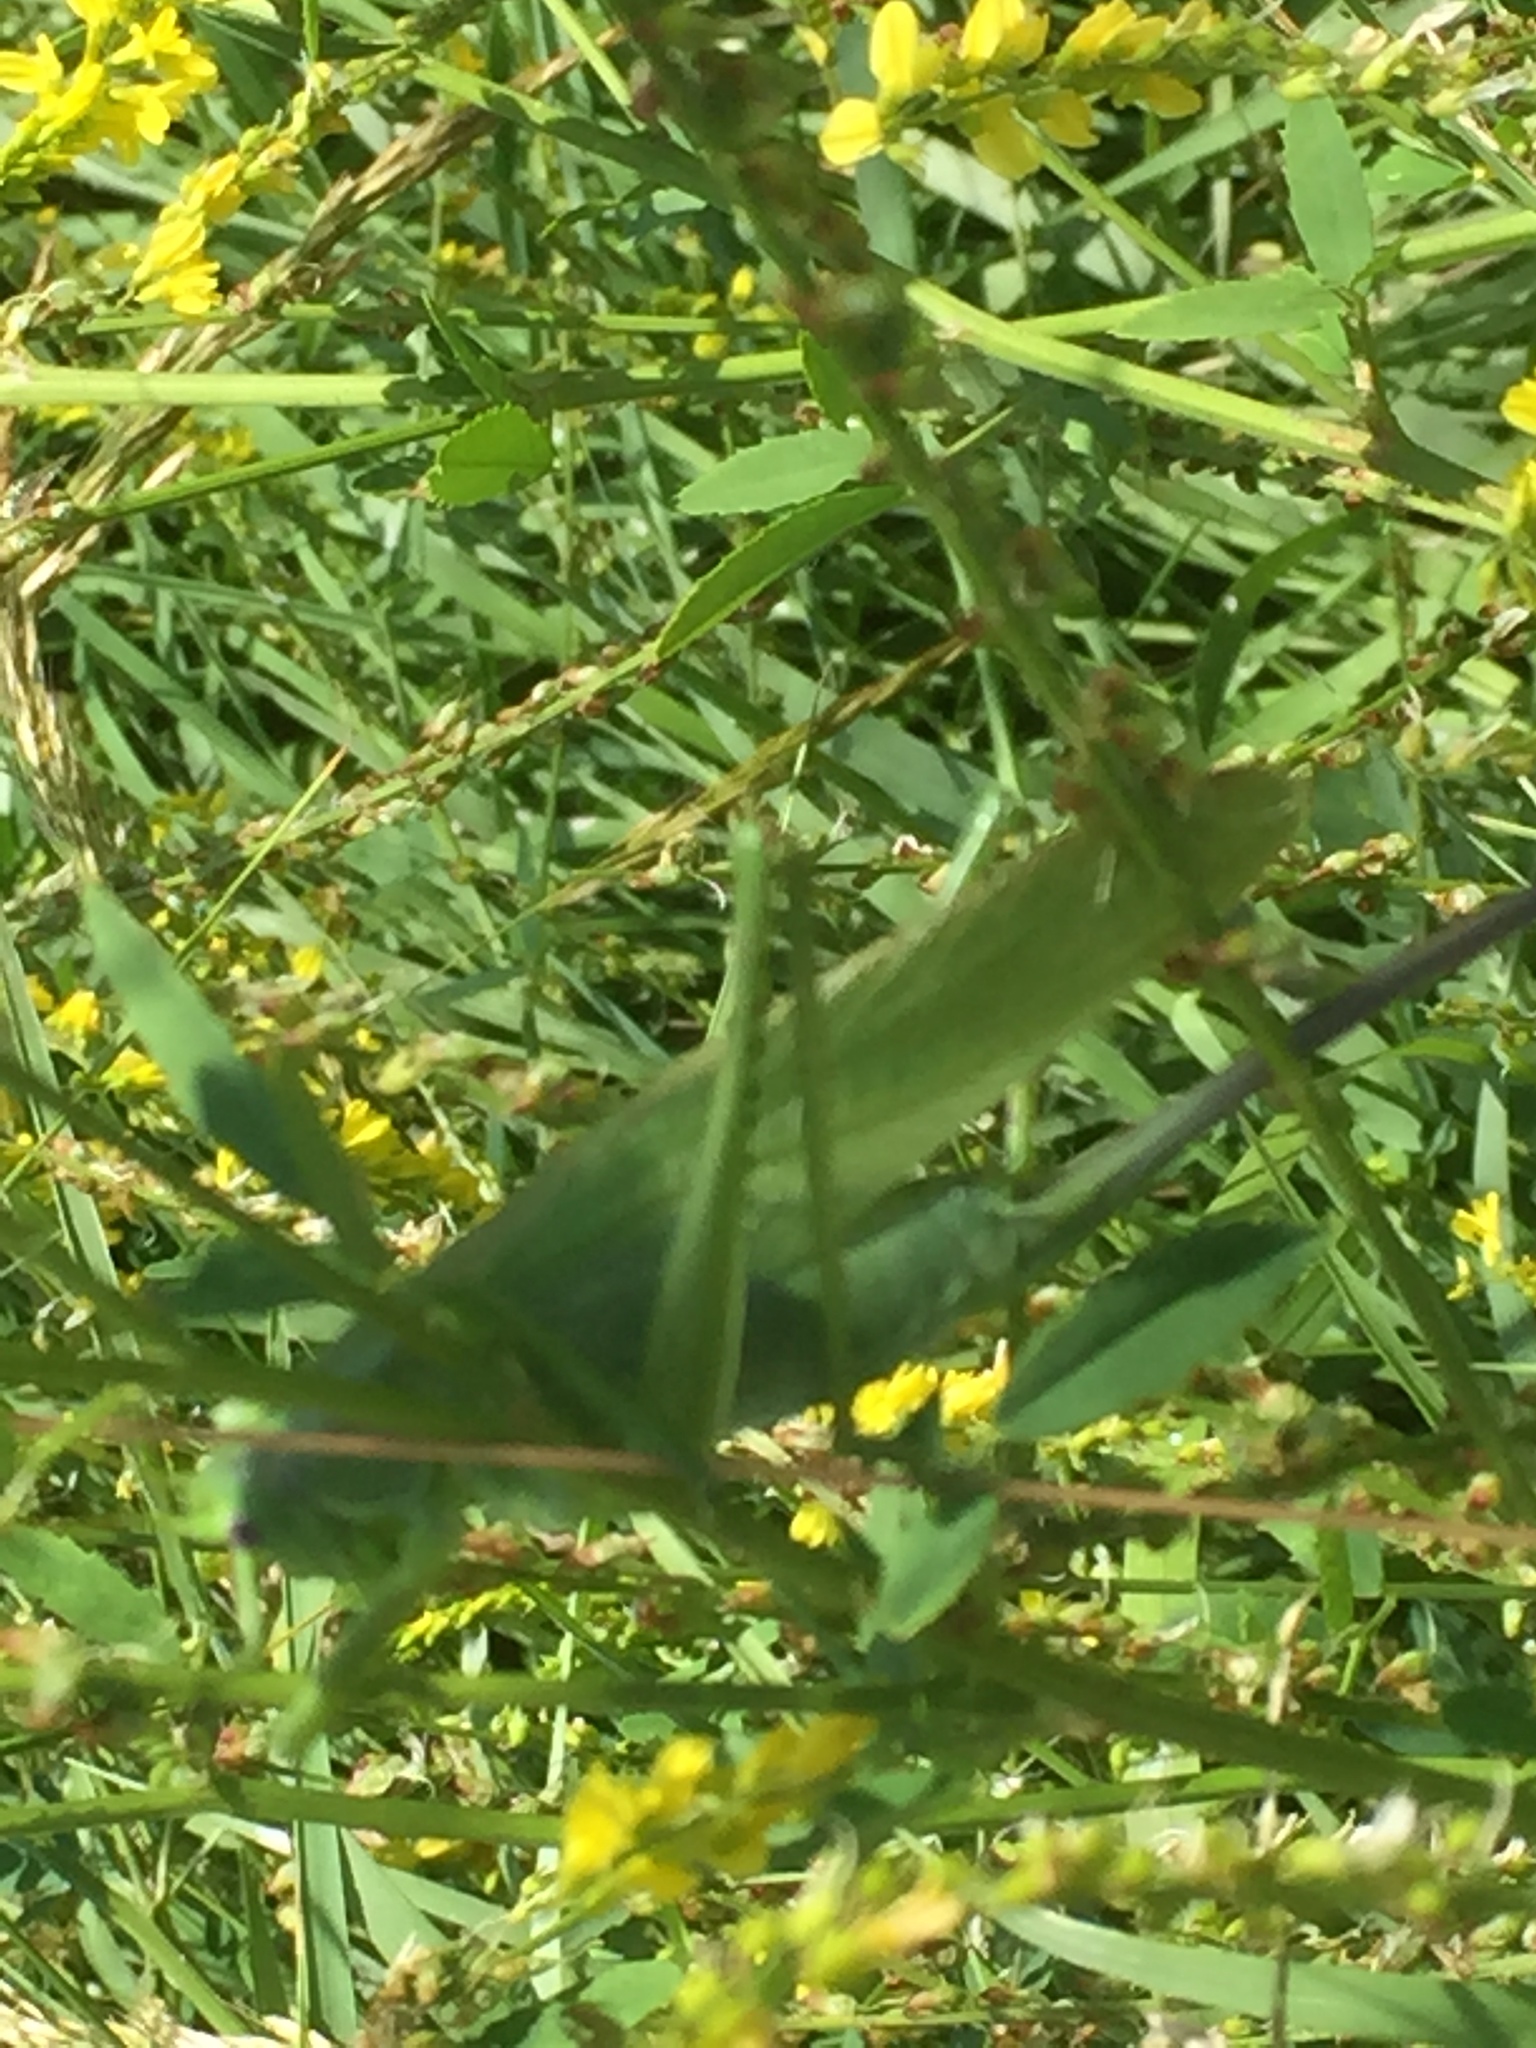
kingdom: Animalia
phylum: Arthropoda
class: Insecta
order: Orthoptera
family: Tettigoniidae
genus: Tettigonia
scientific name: Tettigonia caudata
